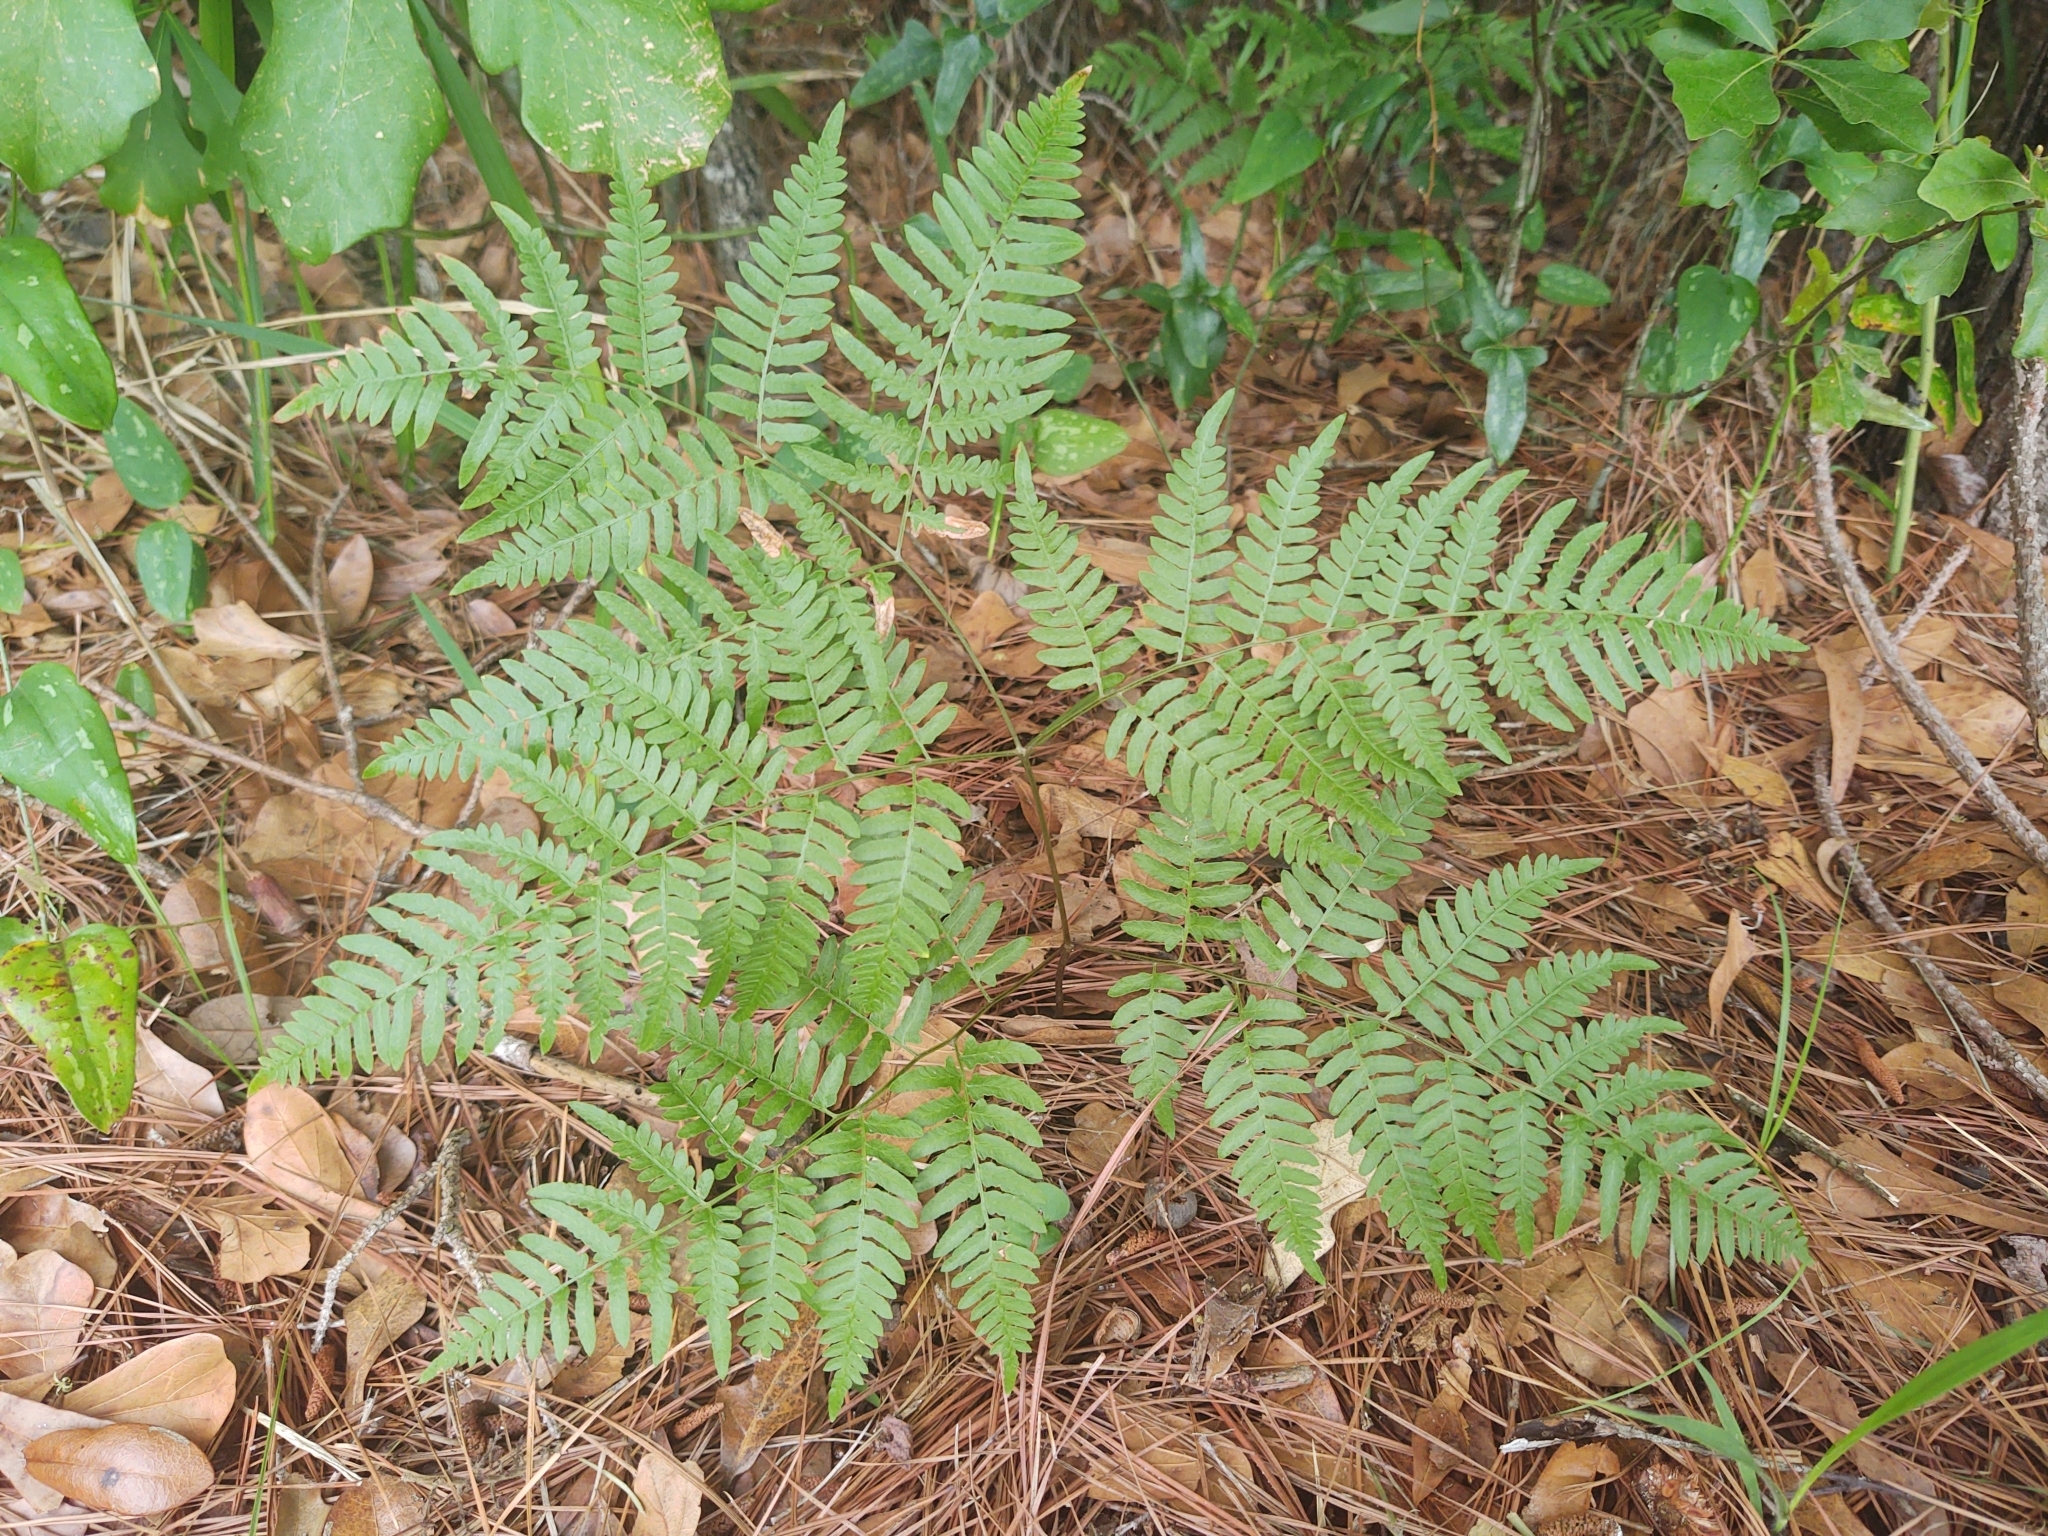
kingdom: Plantae
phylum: Tracheophyta
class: Polypodiopsida
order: Polypodiales
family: Dennstaedtiaceae
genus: Pteridium
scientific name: Pteridium aquilinum
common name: Bracken
